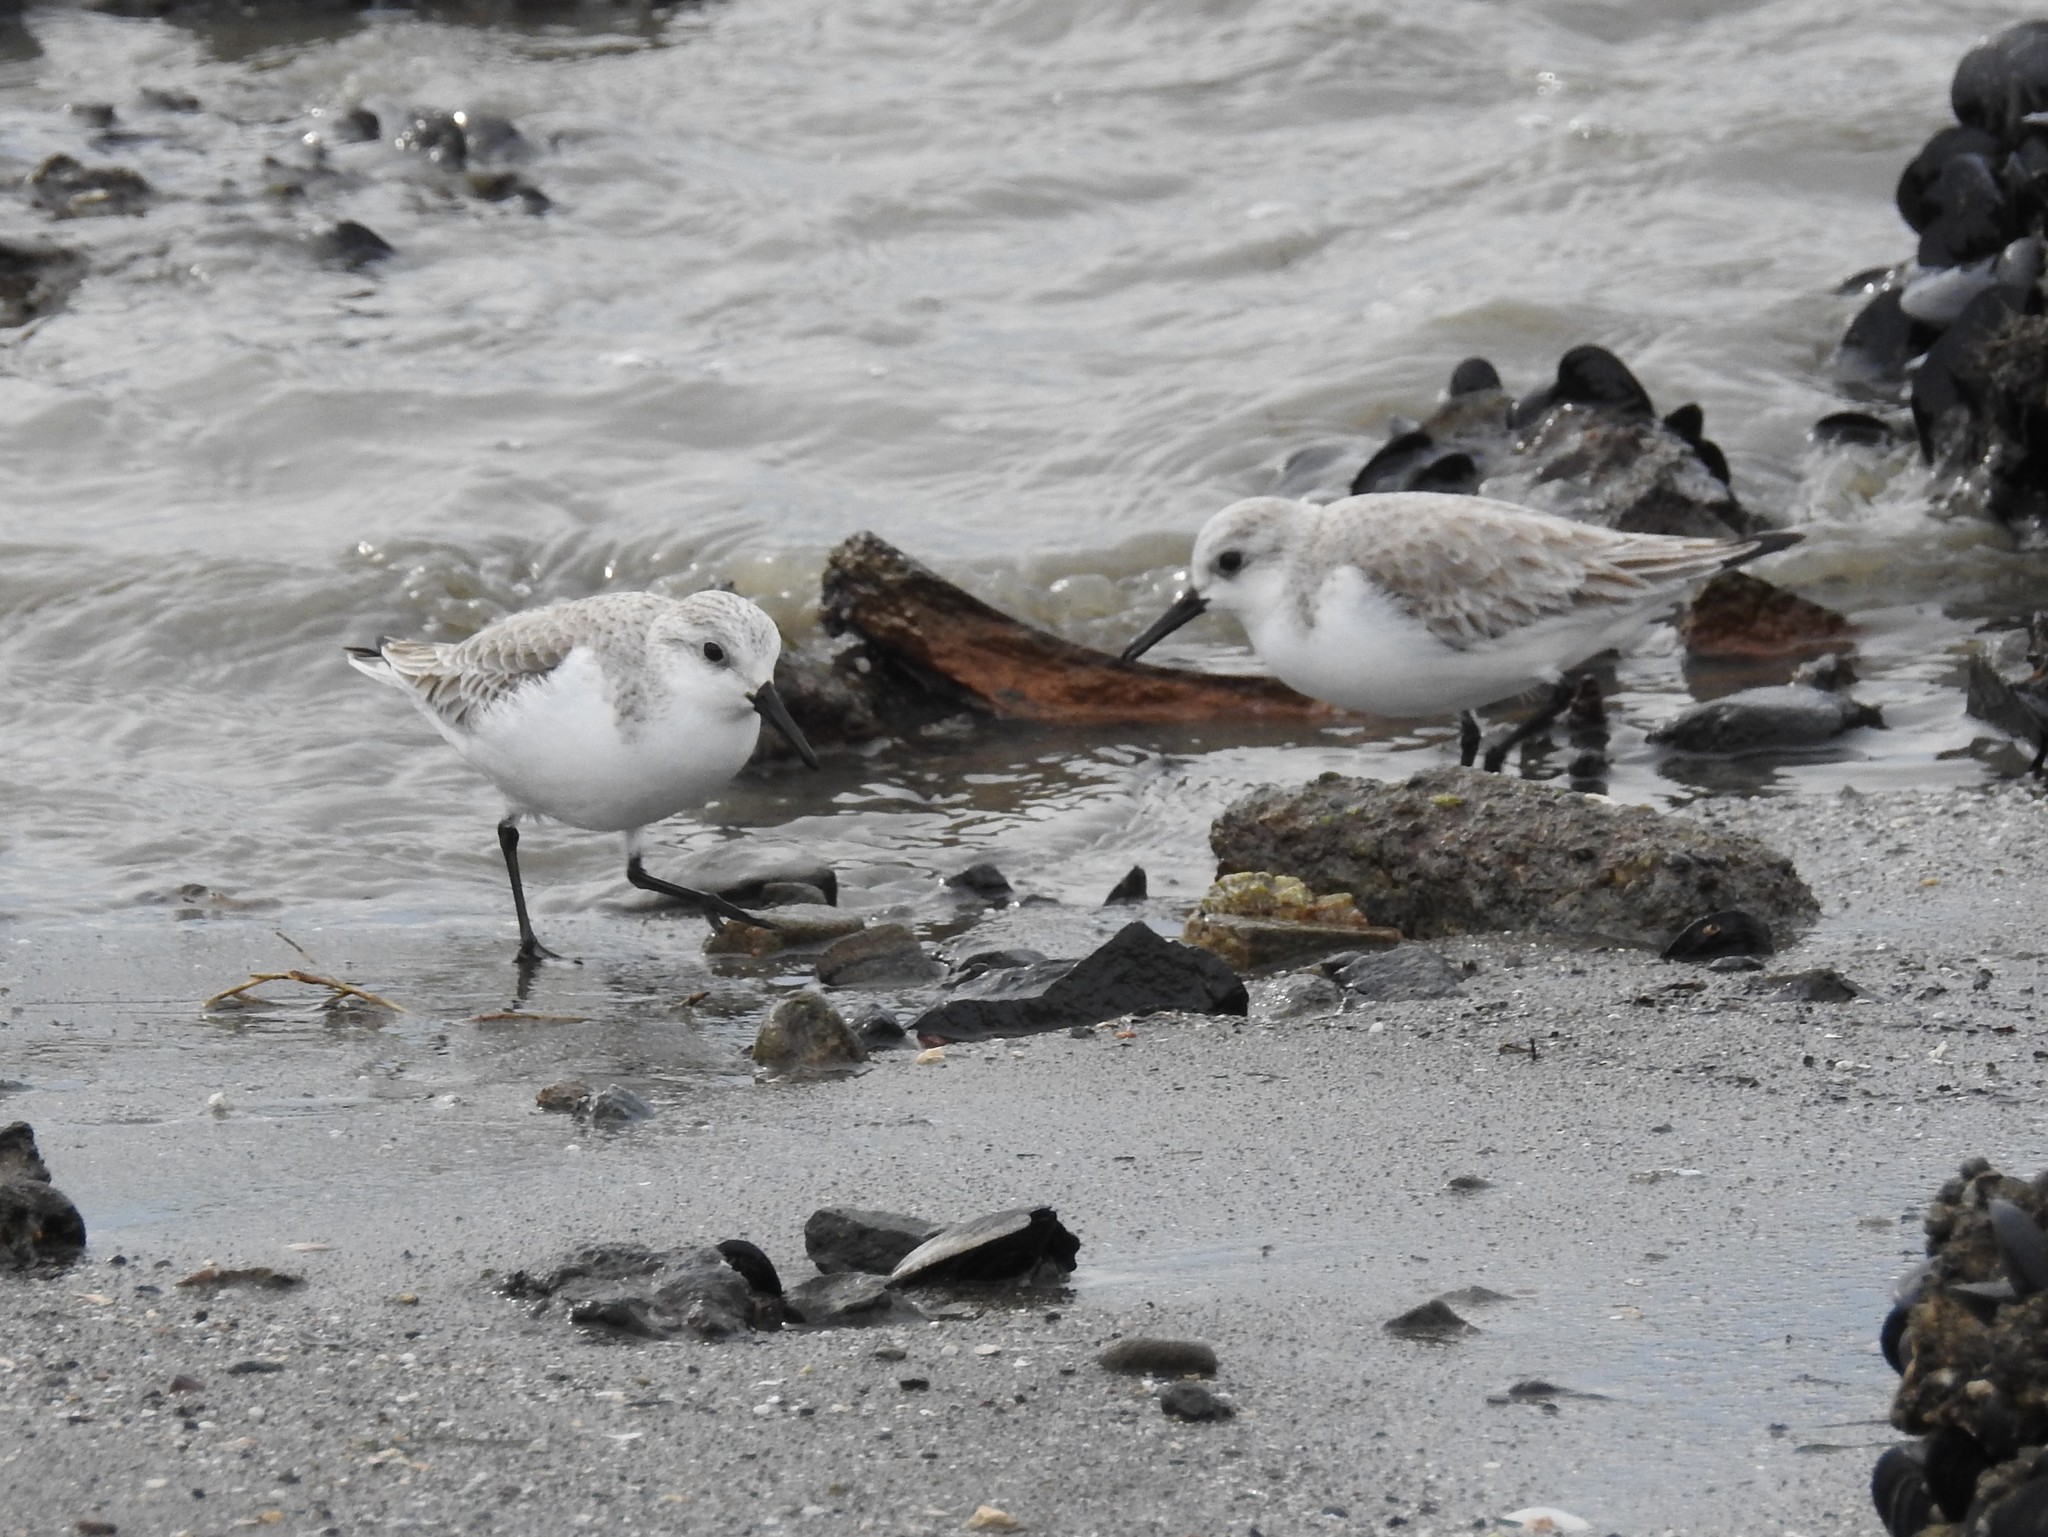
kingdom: Animalia
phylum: Chordata
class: Aves
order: Charadriiformes
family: Scolopacidae
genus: Calidris
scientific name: Calidris alba
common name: Sanderling
